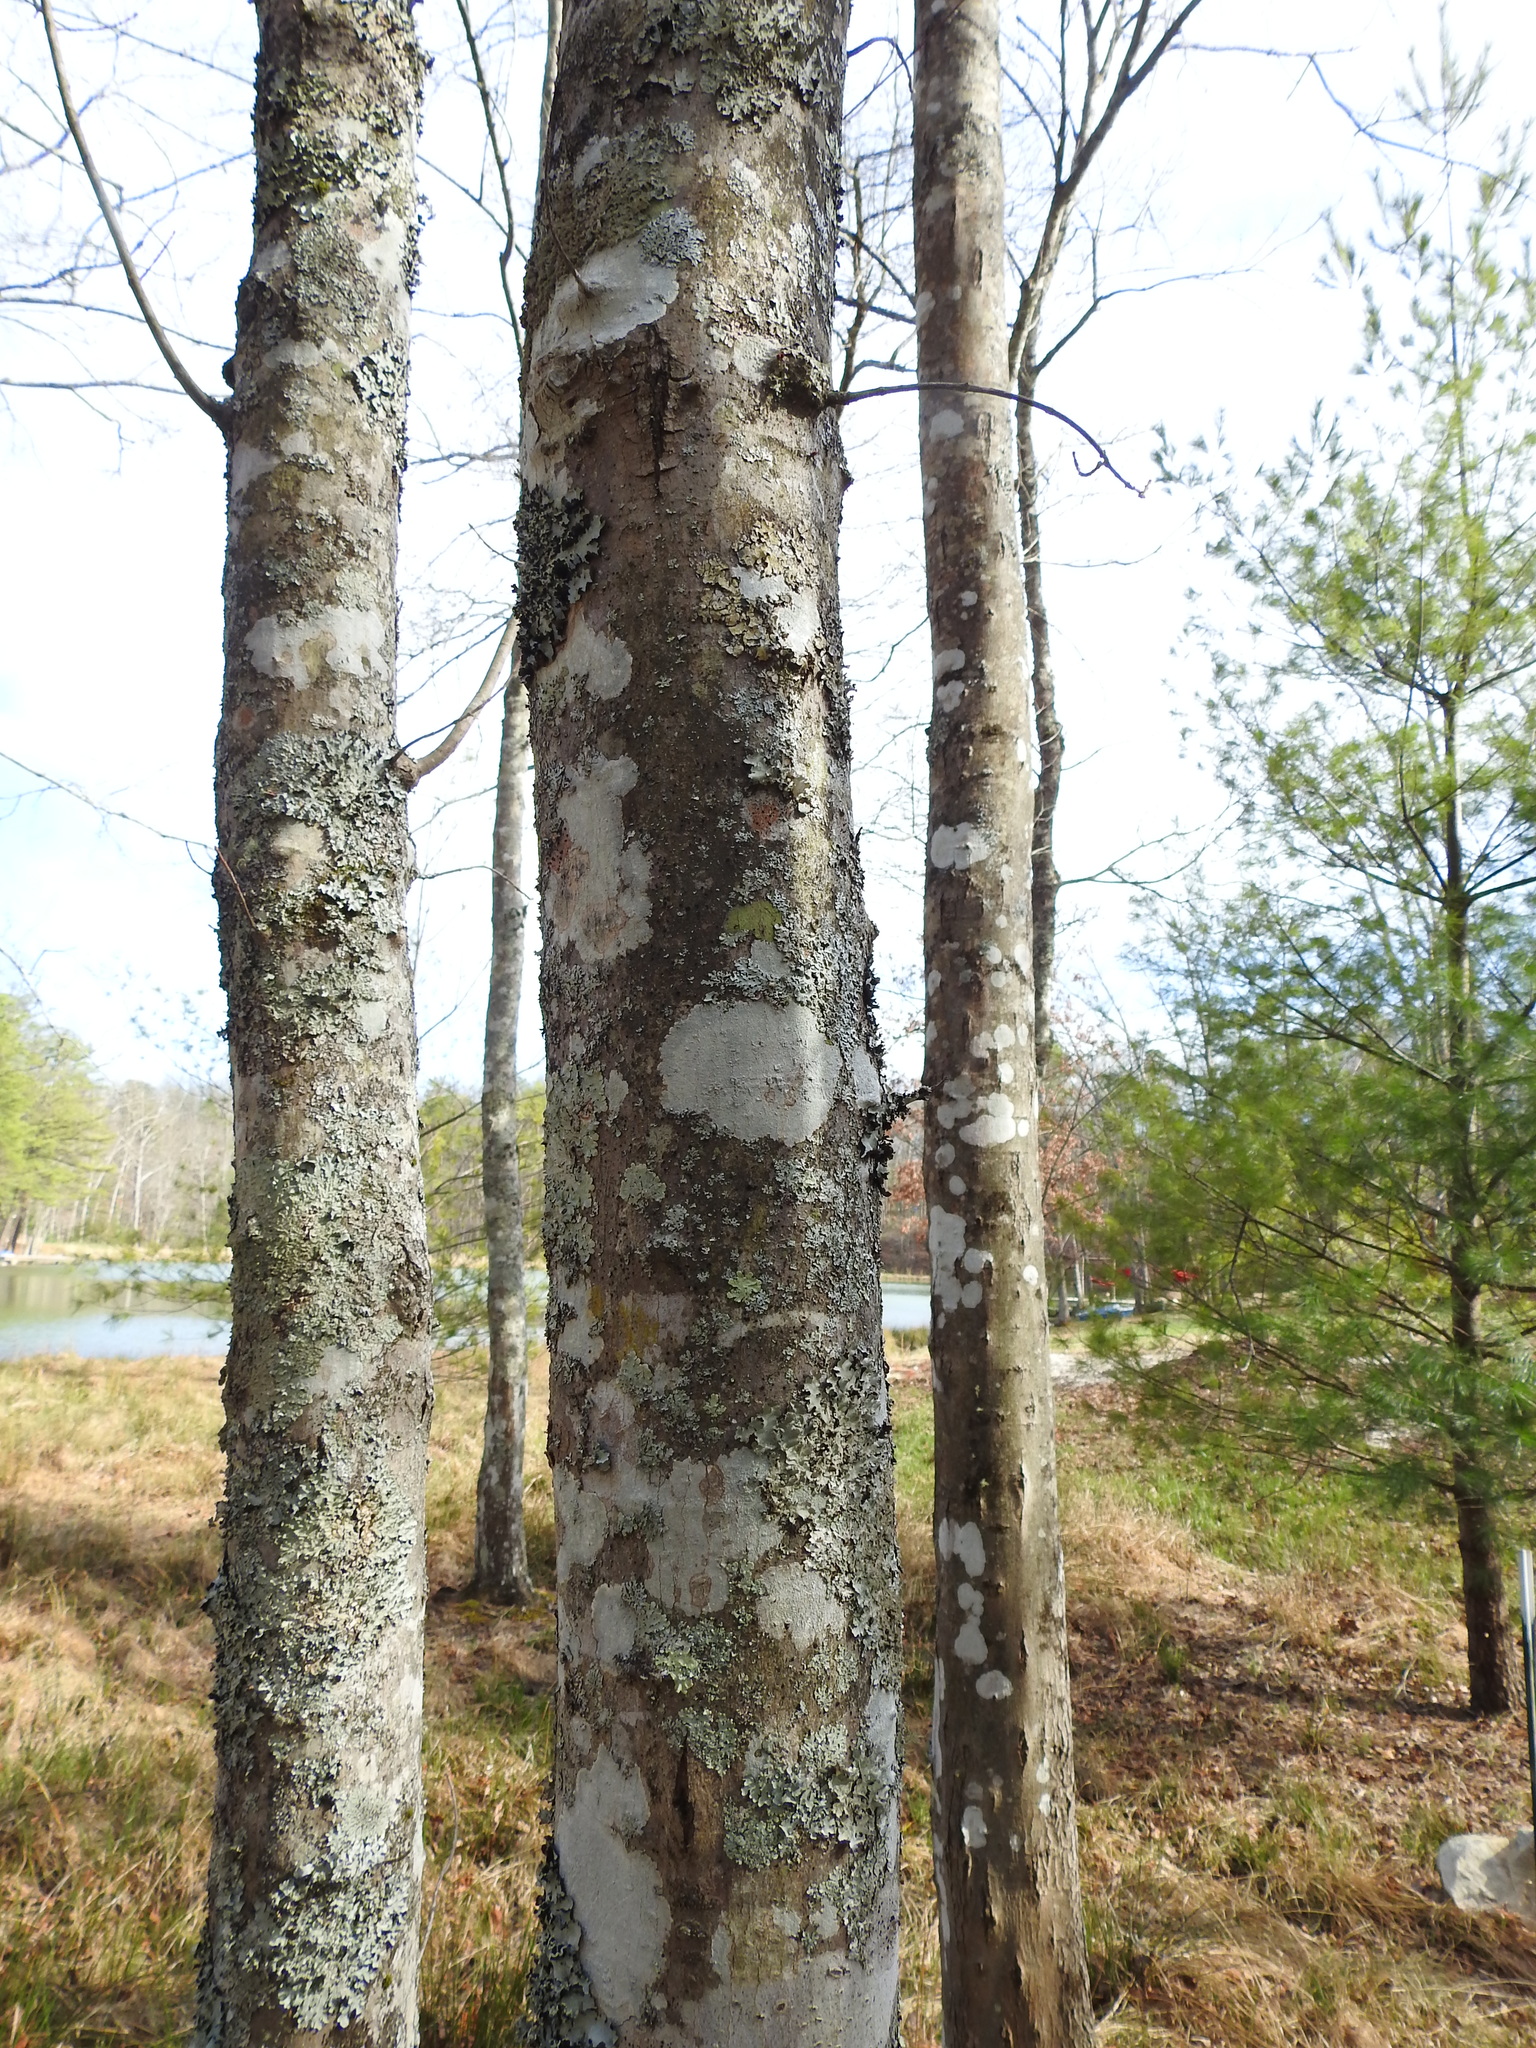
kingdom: Plantae
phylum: Tracheophyta
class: Magnoliopsida
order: Sapindales
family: Sapindaceae
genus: Acer
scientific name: Acer rubrum
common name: Red maple
